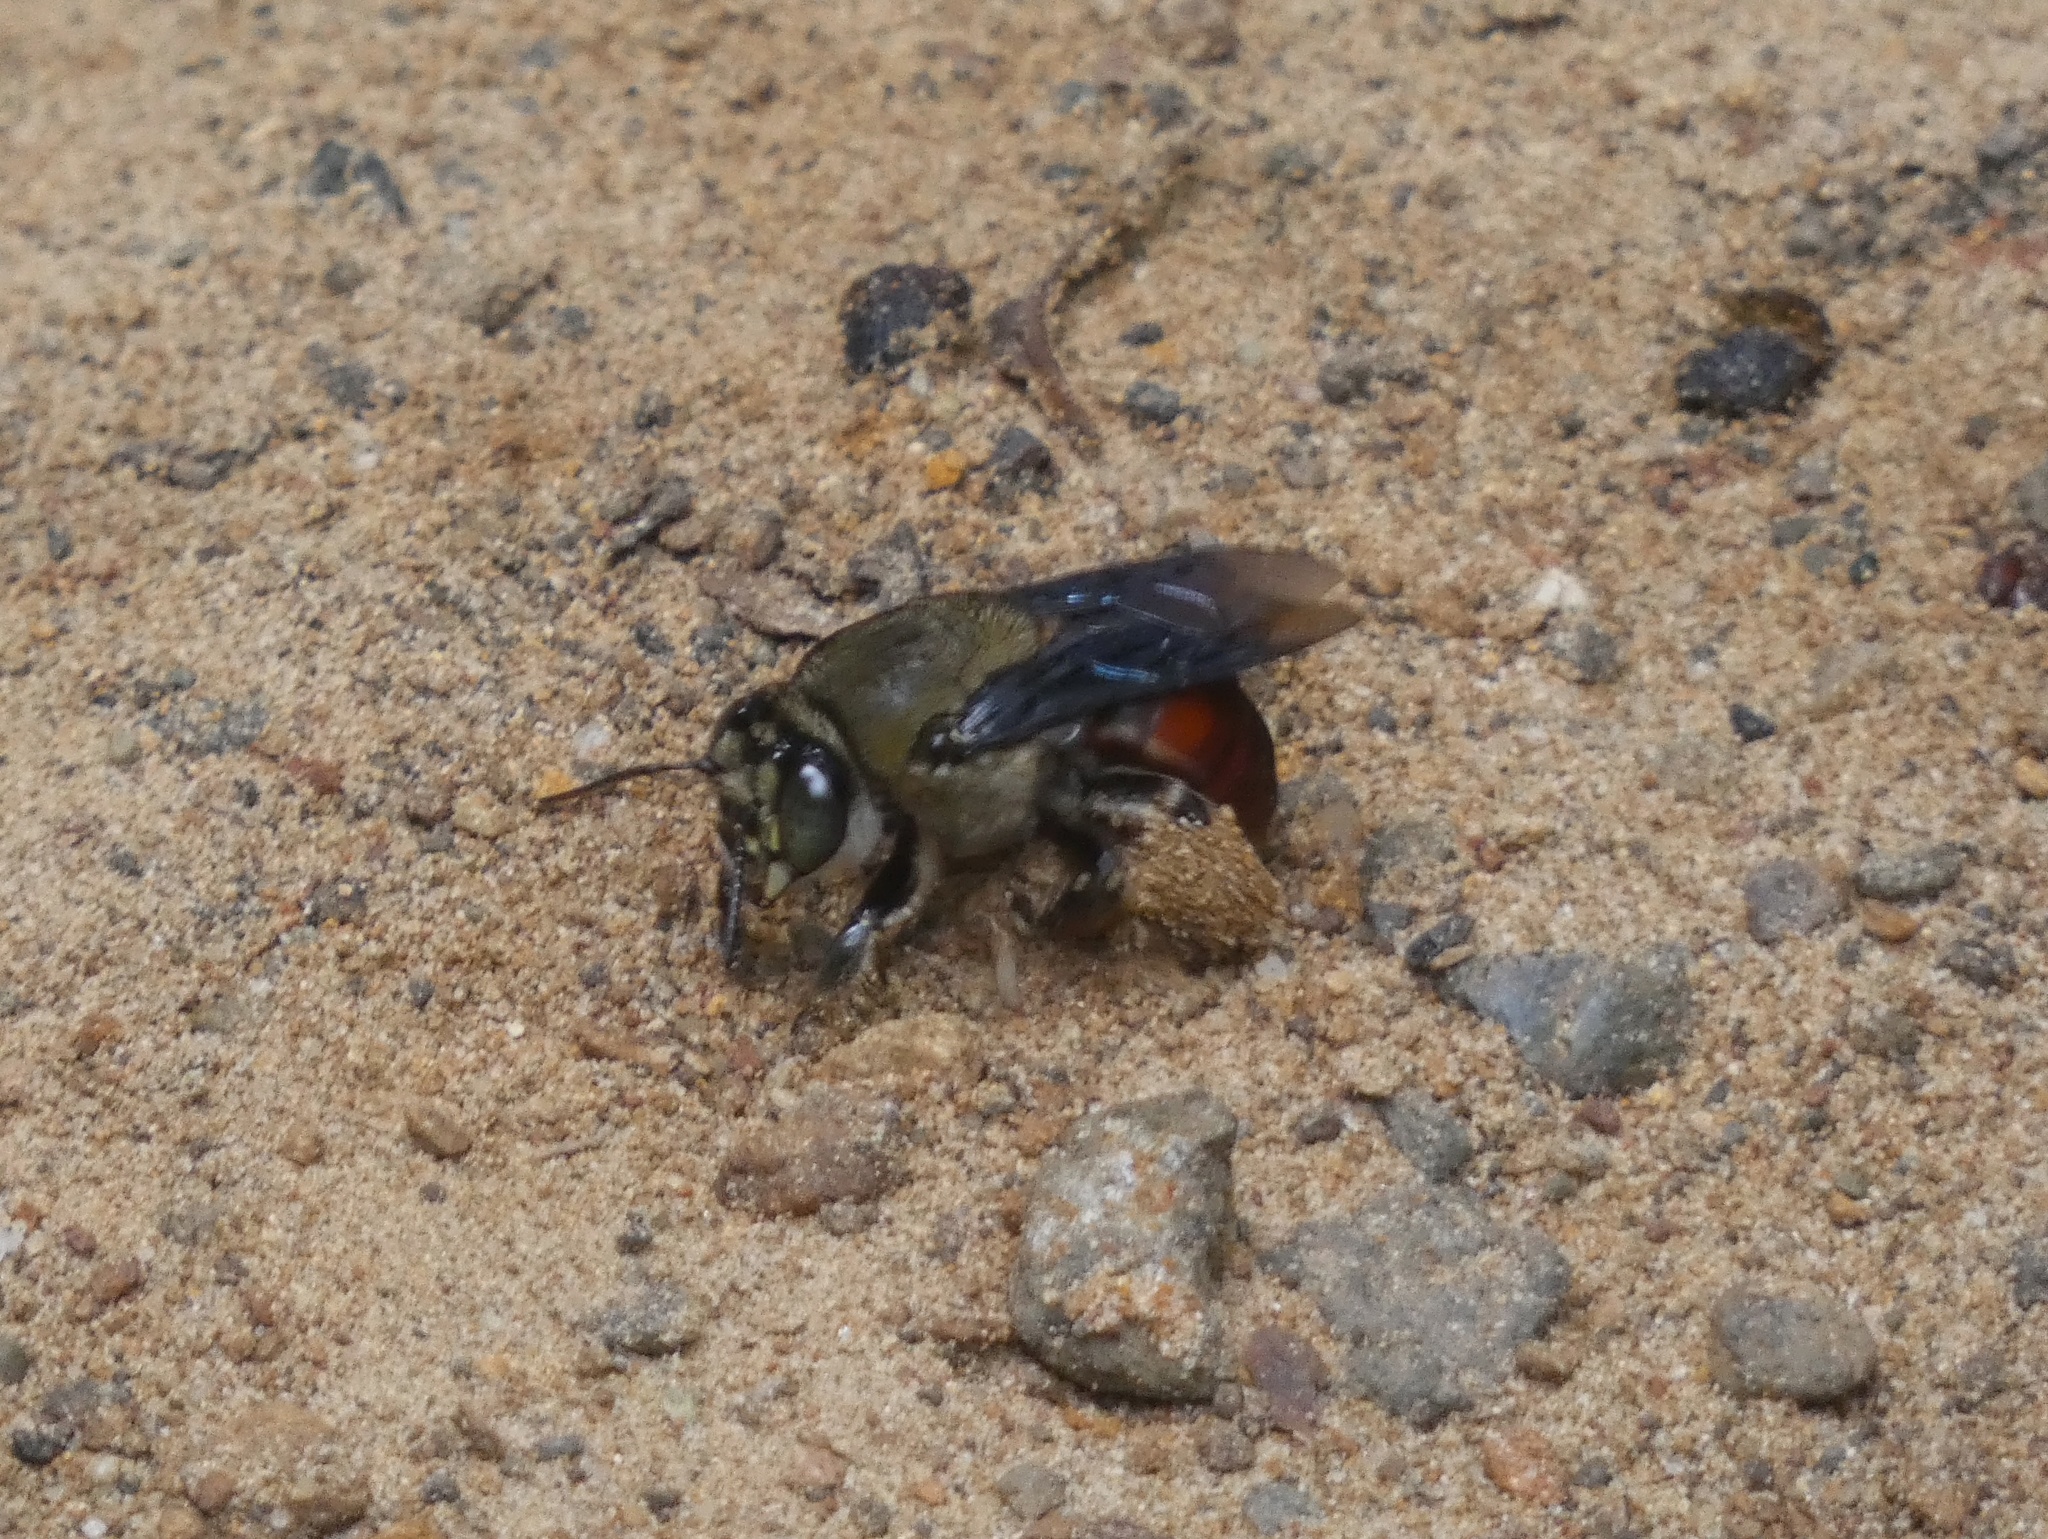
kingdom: Animalia
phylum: Arthropoda
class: Insecta
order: Hymenoptera
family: Apidae
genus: Centris
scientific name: Centris vittata
